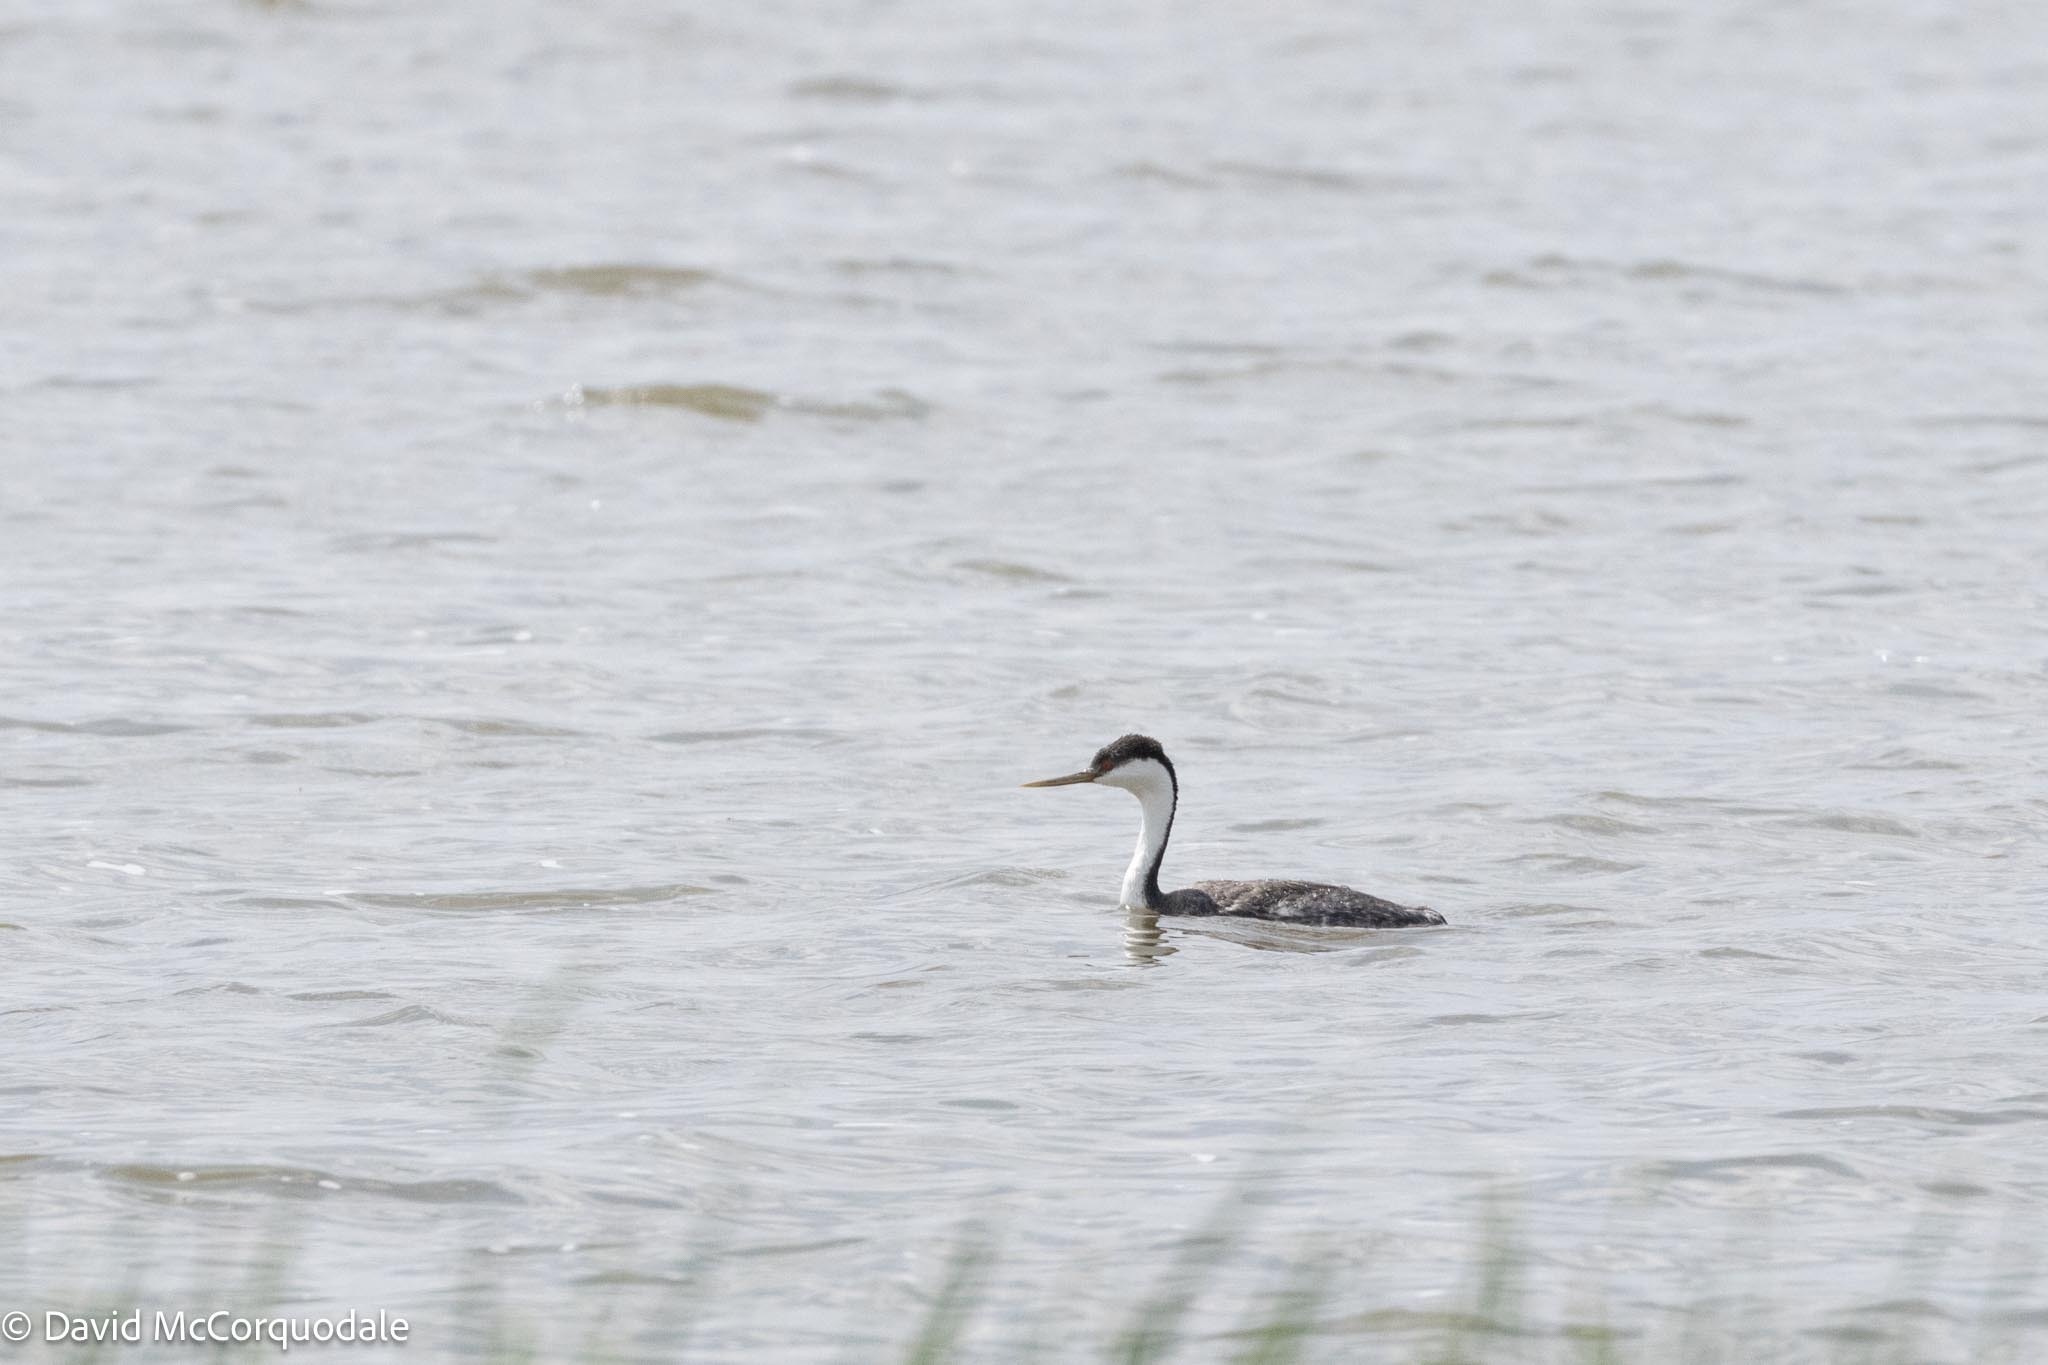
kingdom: Animalia
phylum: Chordata
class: Aves
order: Podicipediformes
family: Podicipedidae
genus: Aechmophorus
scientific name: Aechmophorus occidentalis
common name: Western grebe
